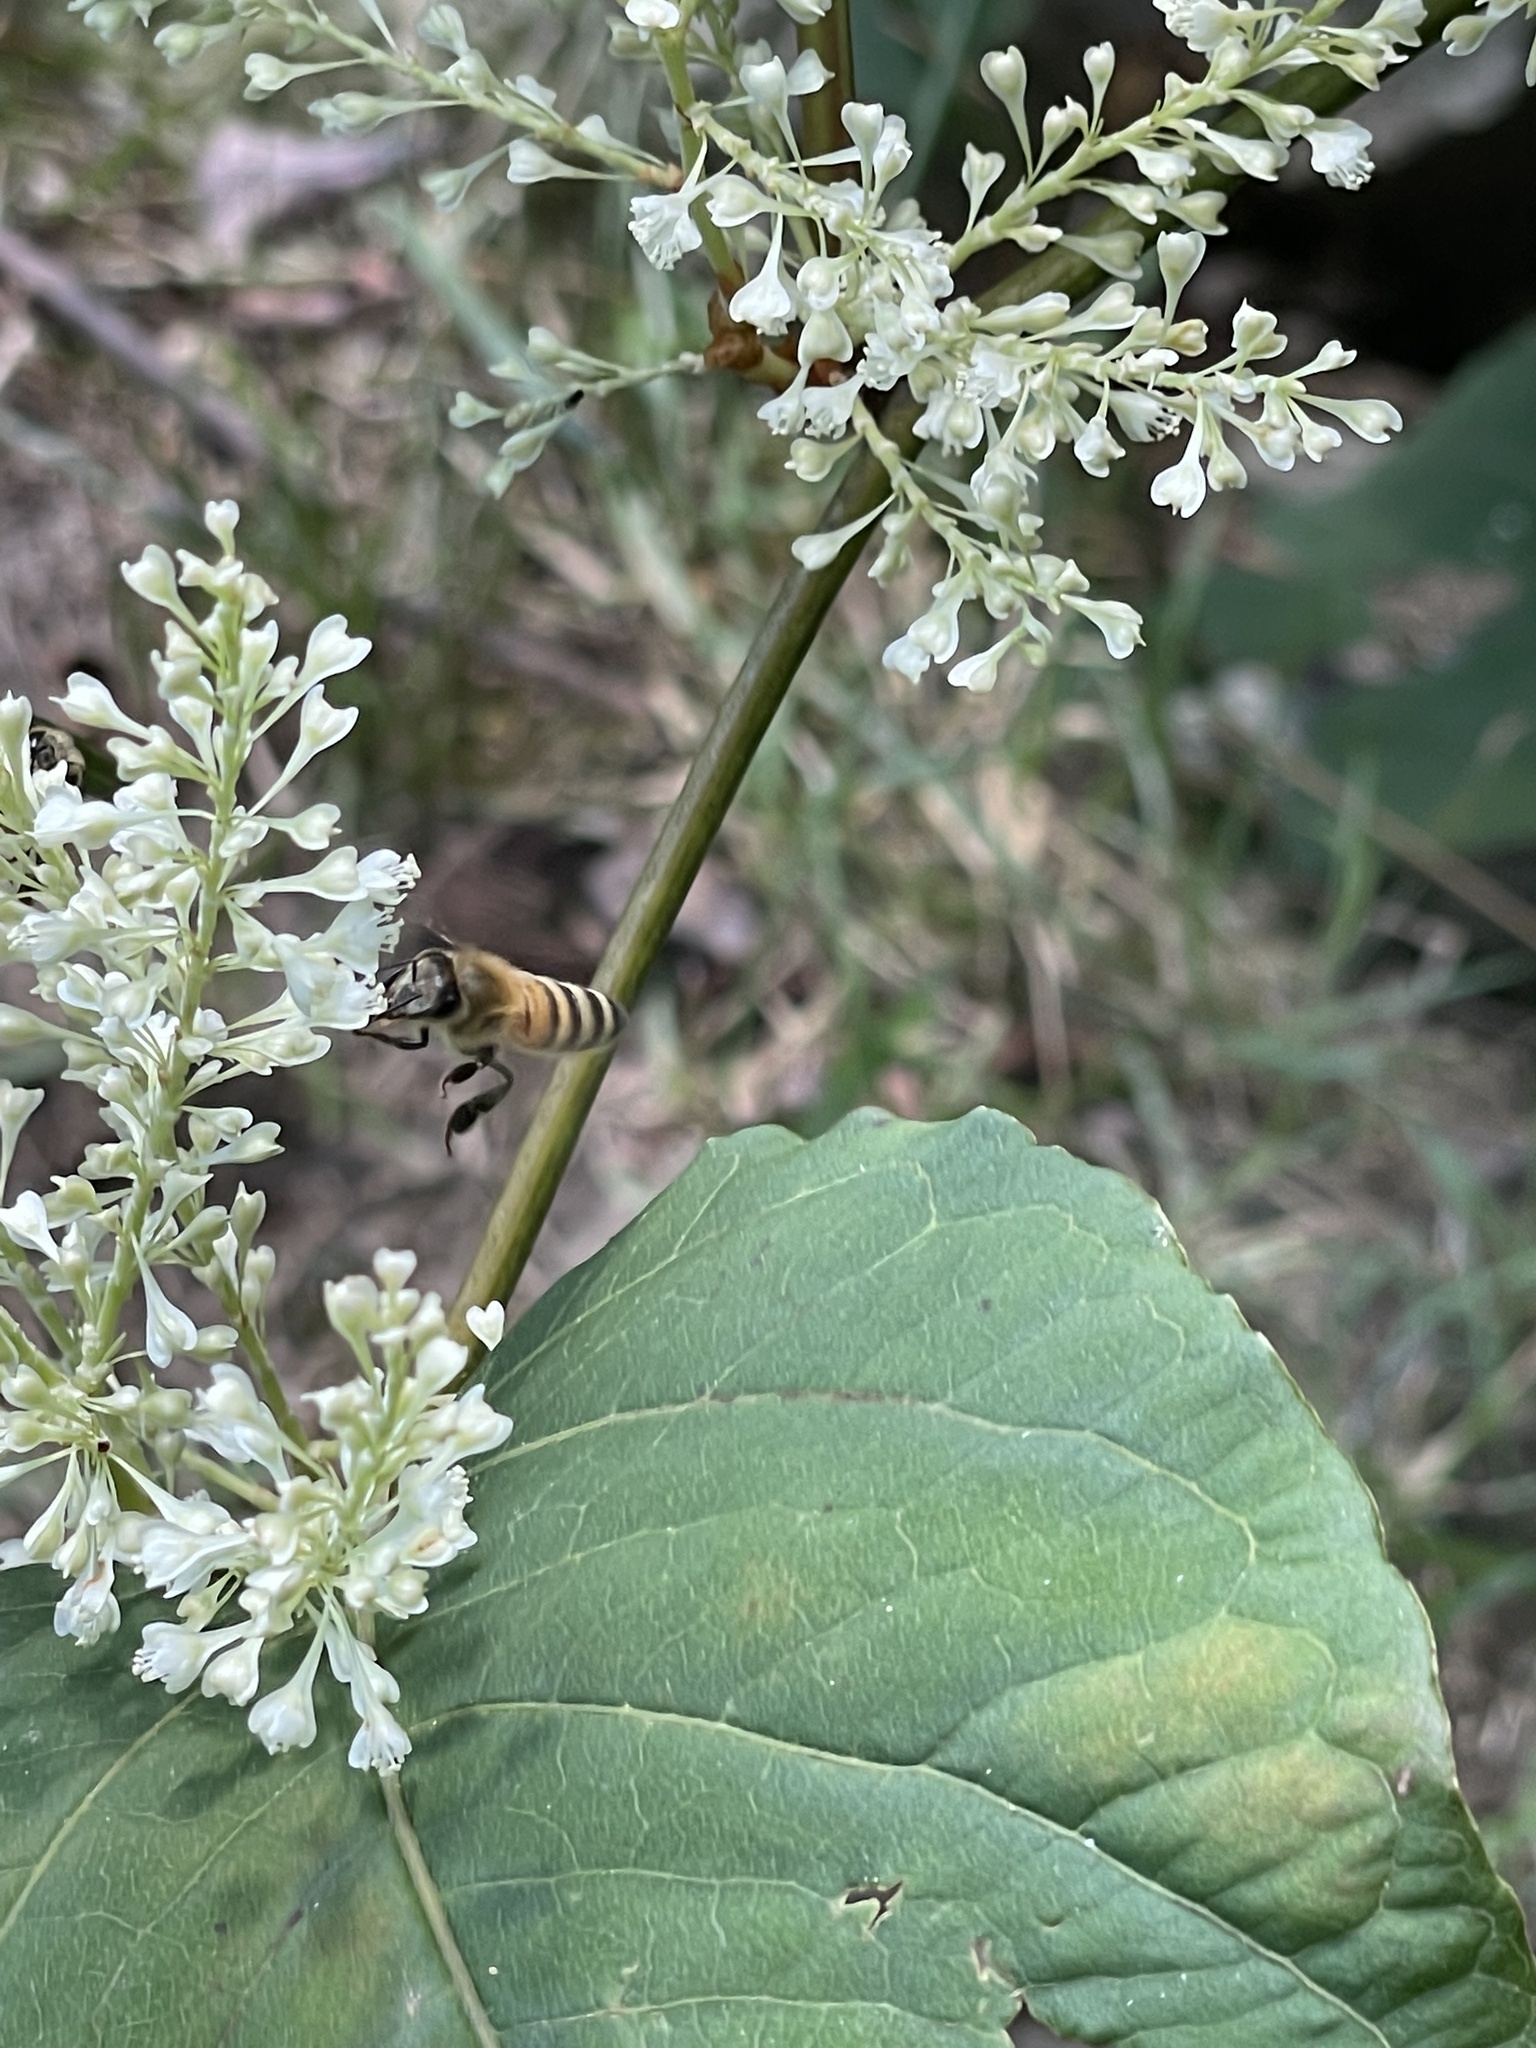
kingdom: Animalia
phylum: Arthropoda
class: Insecta
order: Hymenoptera
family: Apidae
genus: Apis
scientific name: Apis mellifera
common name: Honey bee
